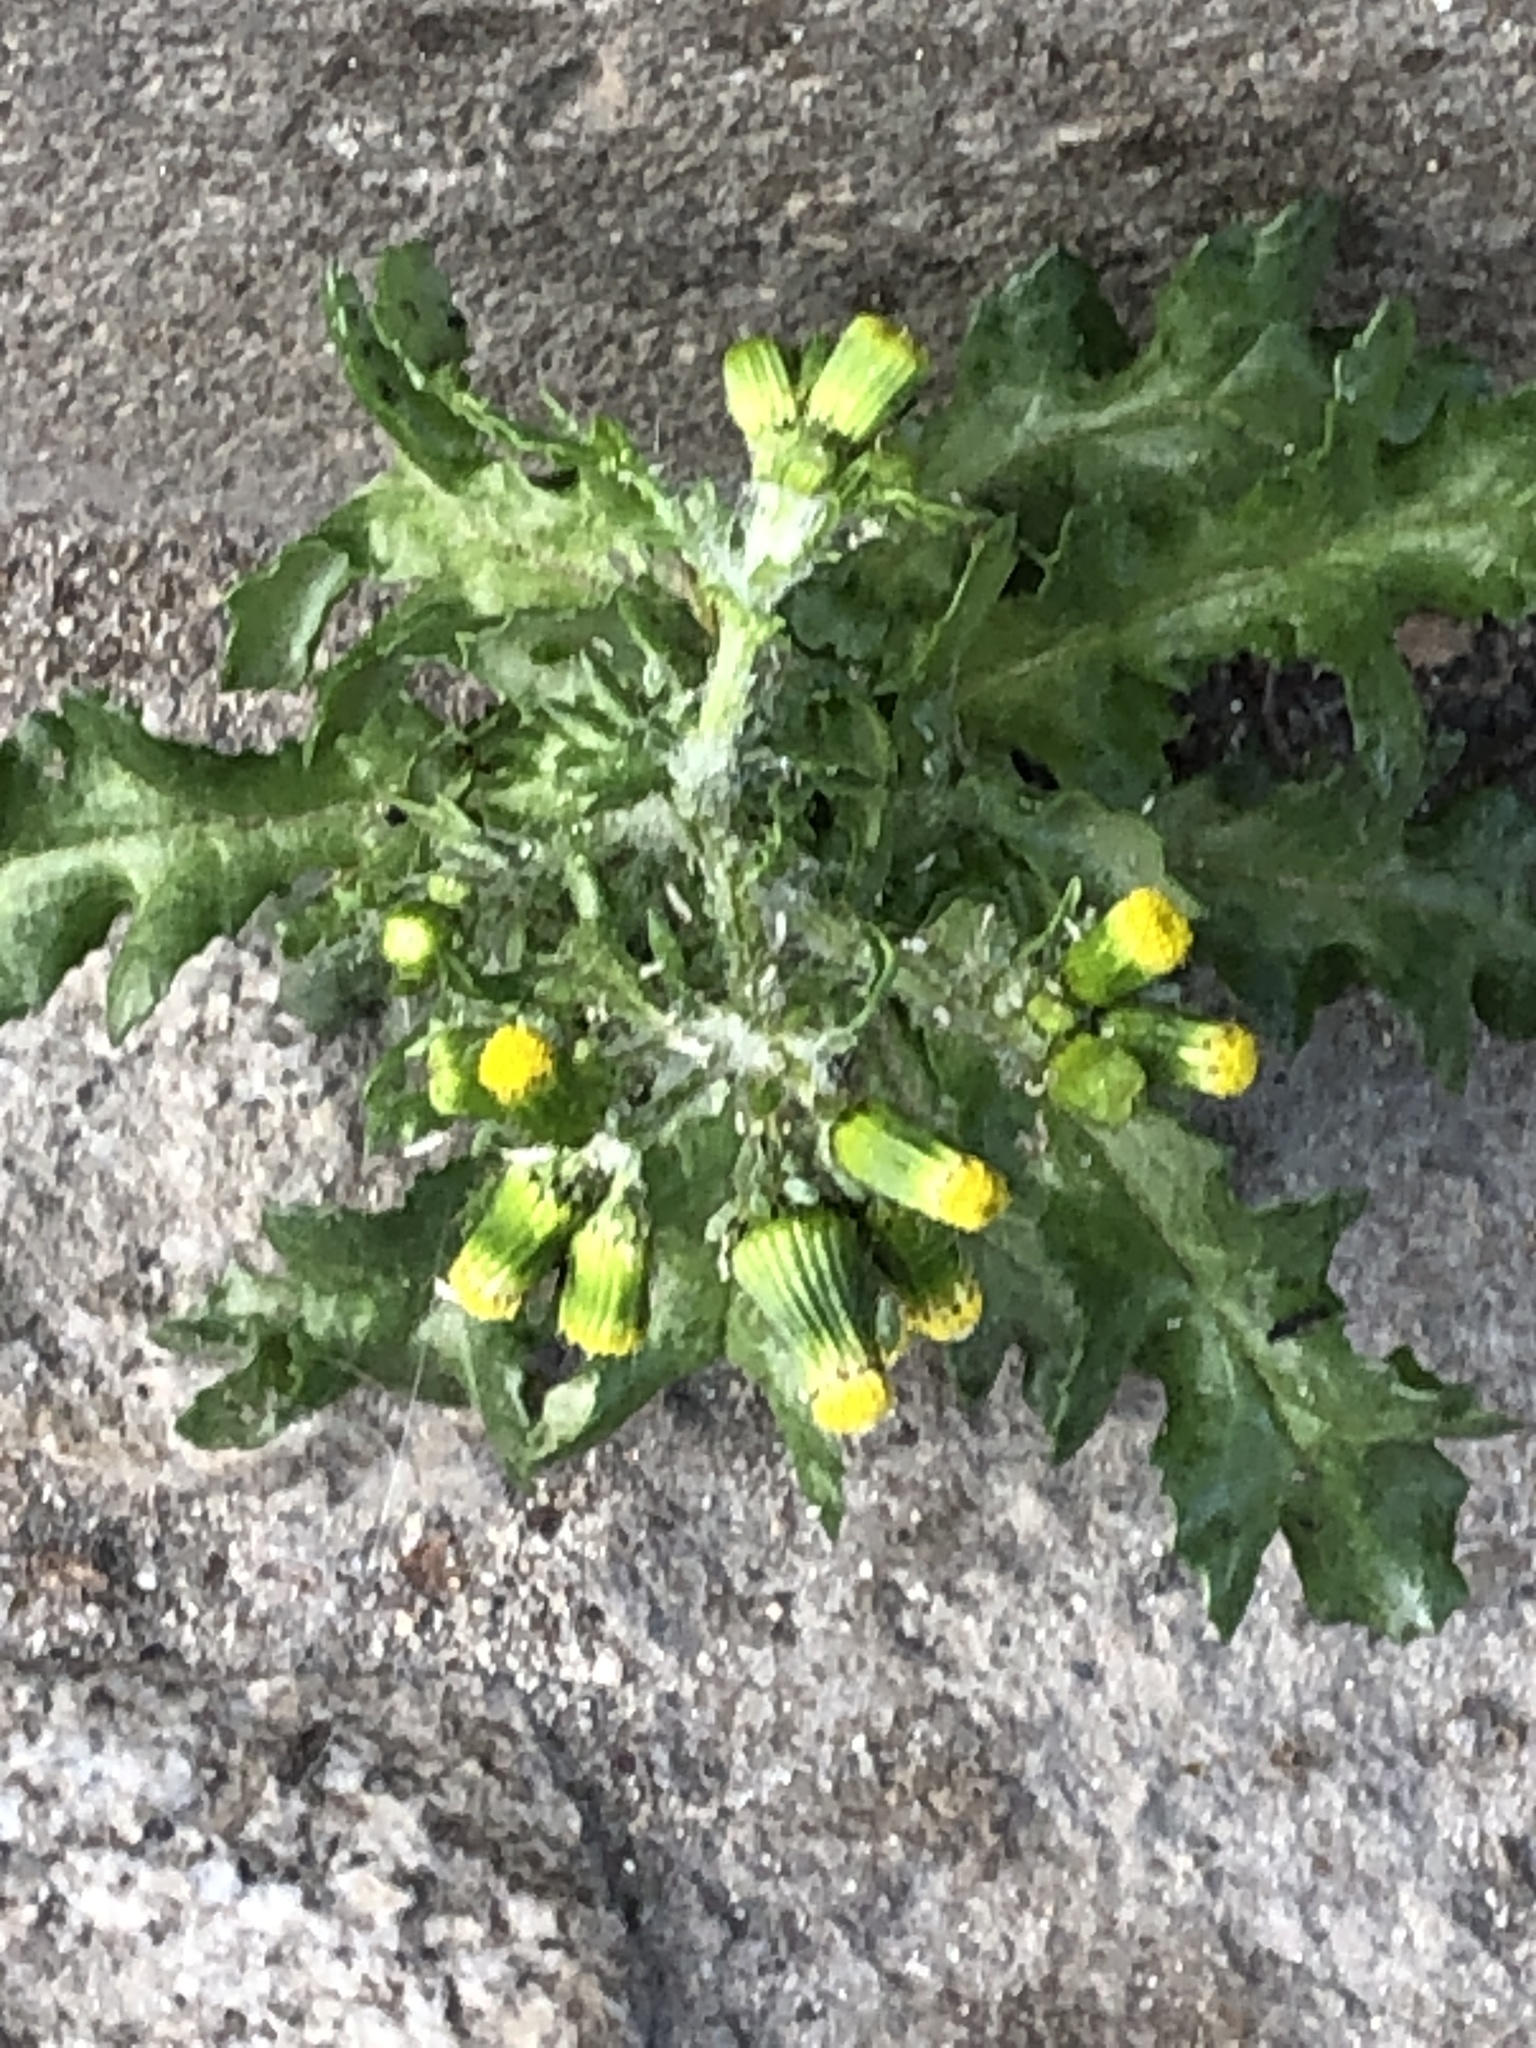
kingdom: Plantae
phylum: Tracheophyta
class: Magnoliopsida
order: Asterales
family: Asteraceae
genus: Senecio
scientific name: Senecio vulgaris
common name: Old-man-in-the-spring
